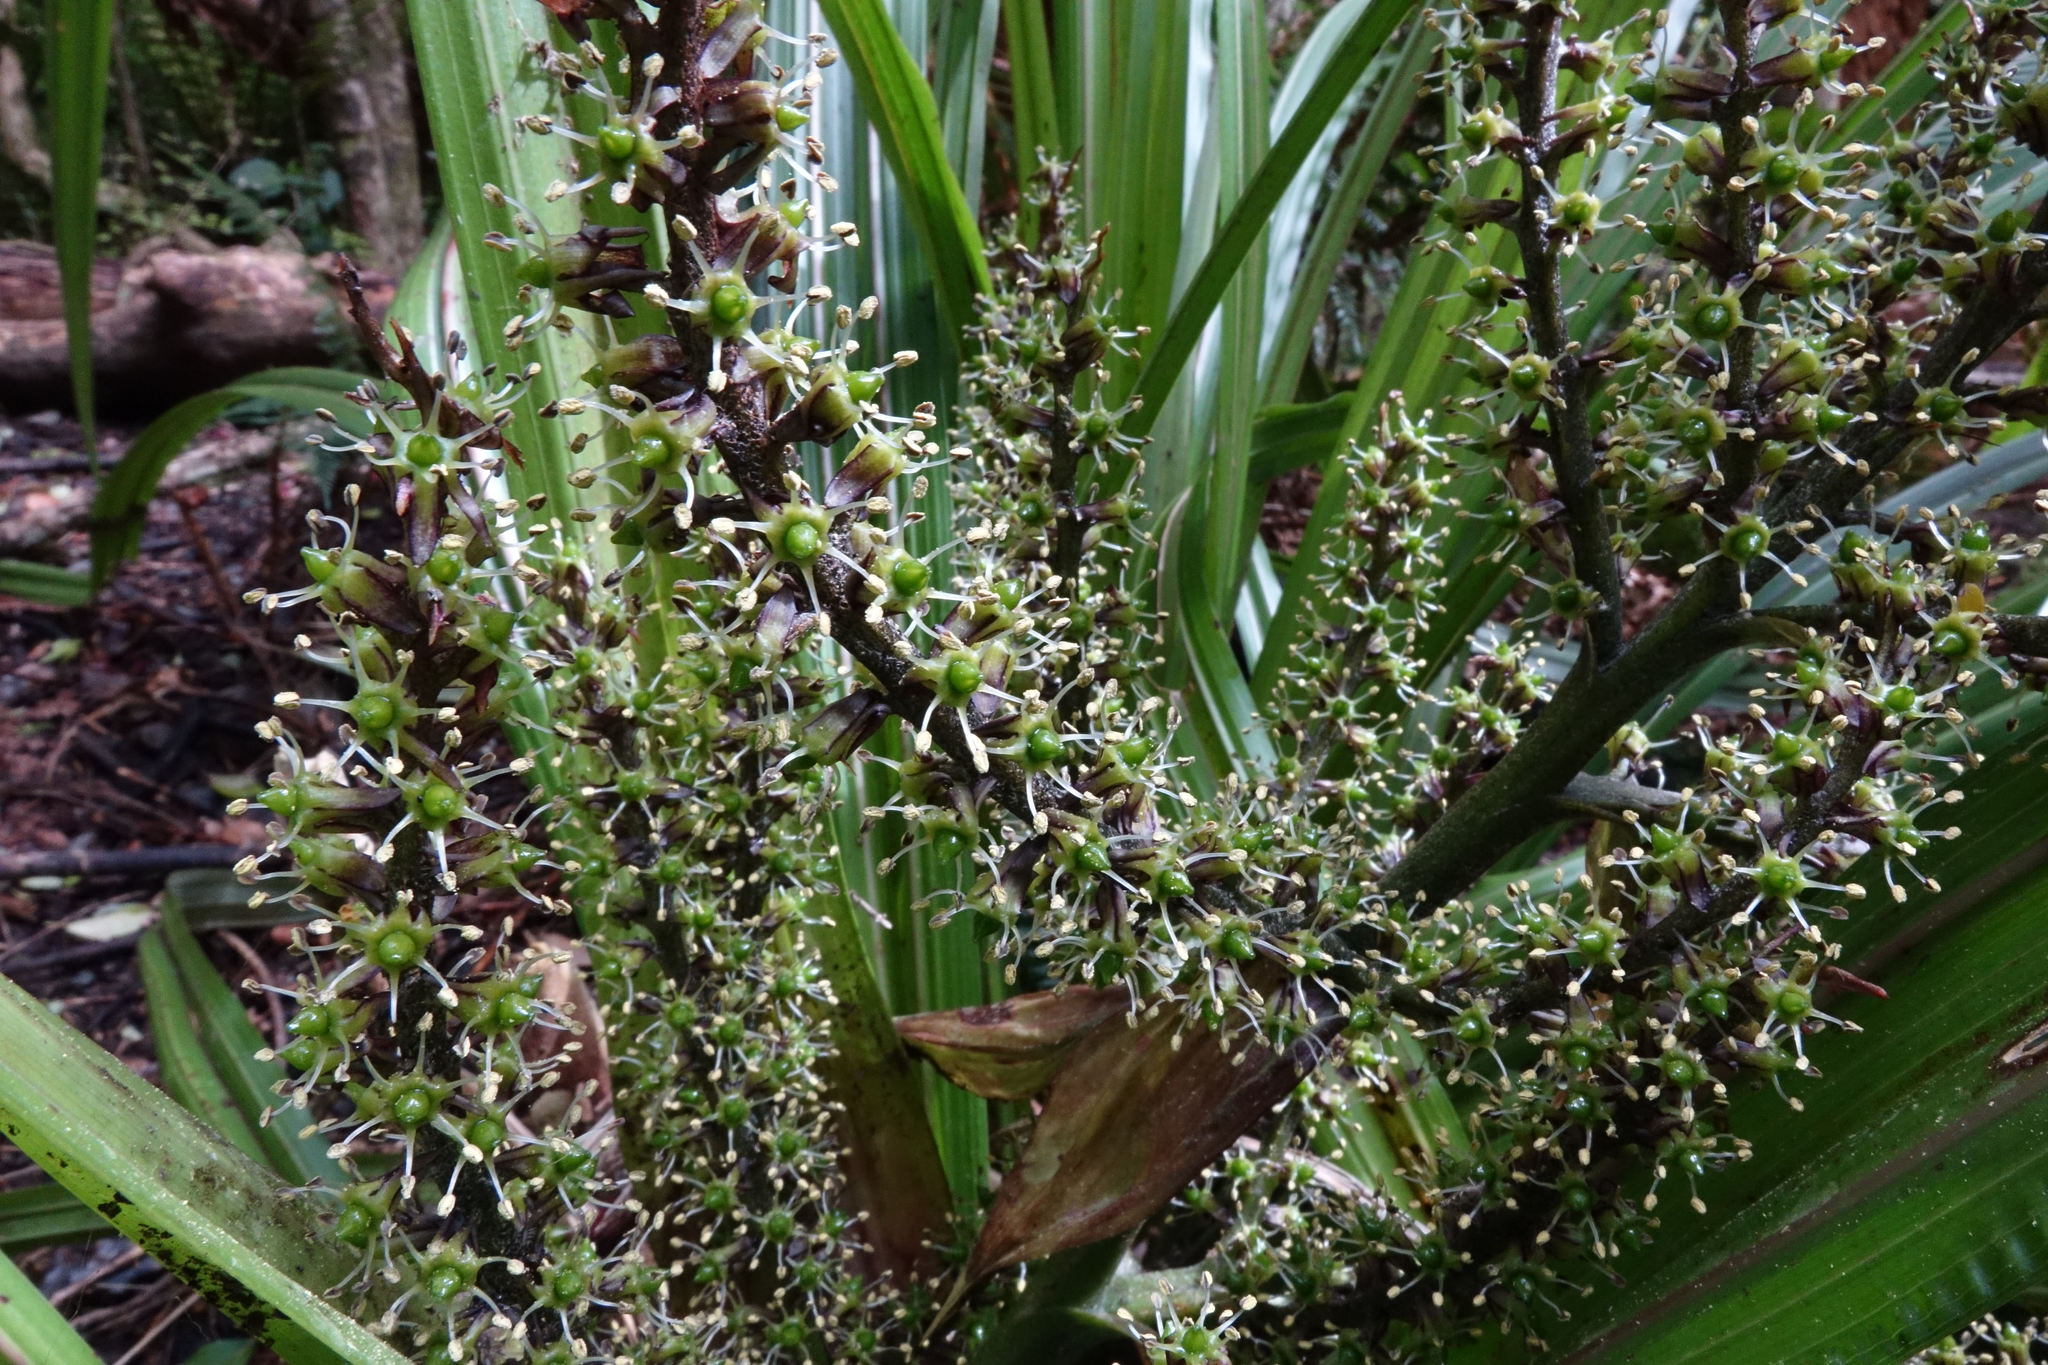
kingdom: Plantae
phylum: Tracheophyta
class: Liliopsida
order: Asparagales
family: Asteliaceae
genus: Astelia
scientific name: Astelia fragrans
